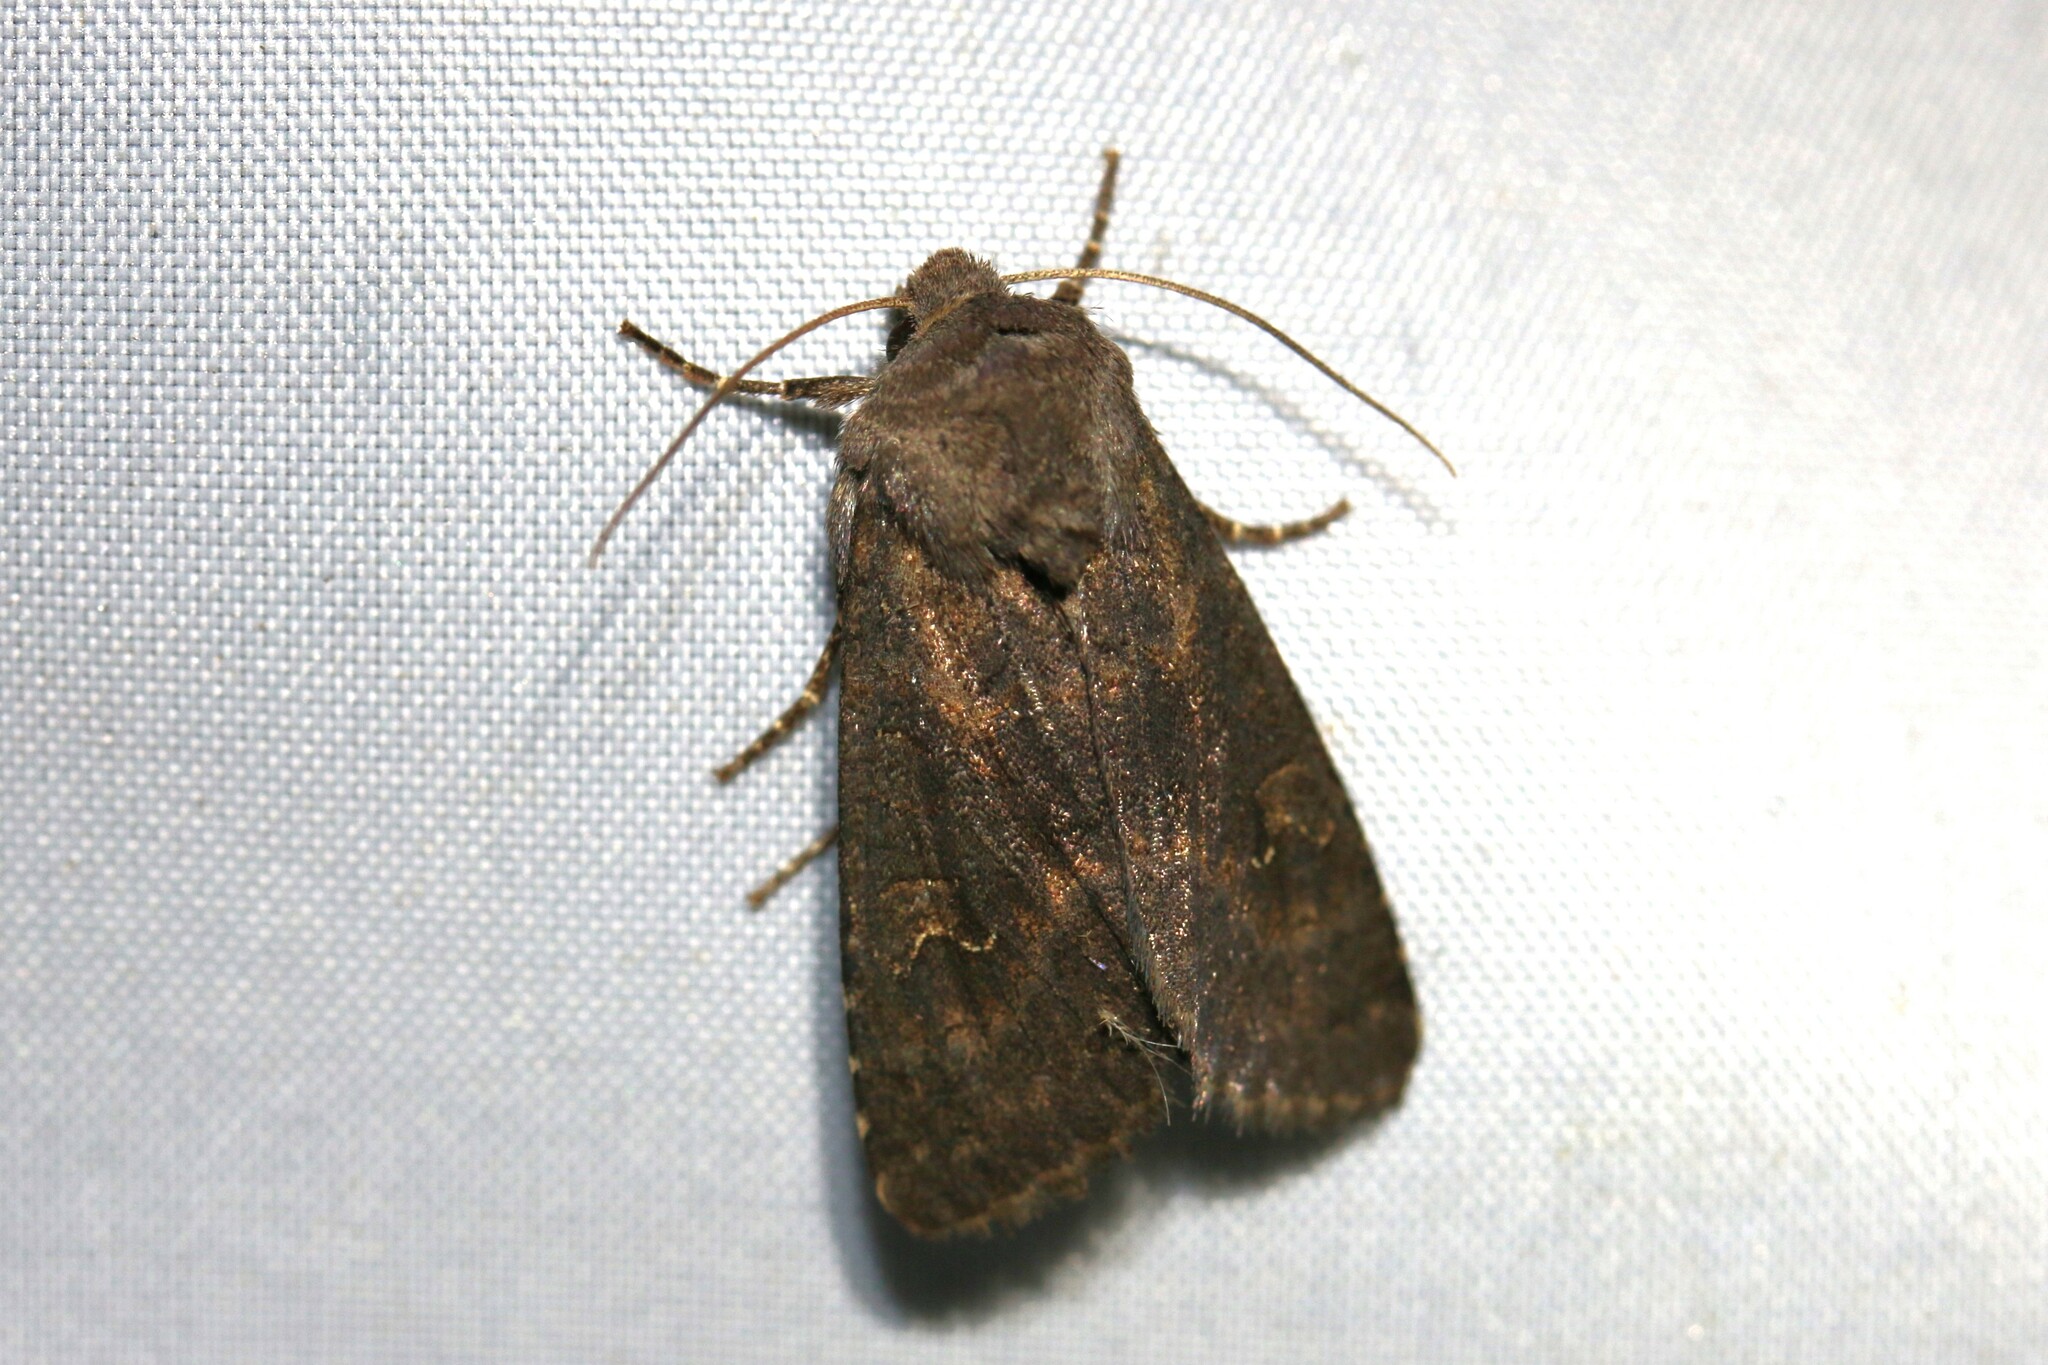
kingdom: Animalia
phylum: Arthropoda
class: Insecta
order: Lepidoptera
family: Noctuidae
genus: Aporophyla
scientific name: Aporophyla lueneburgensis
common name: Northern deep-brown dart
